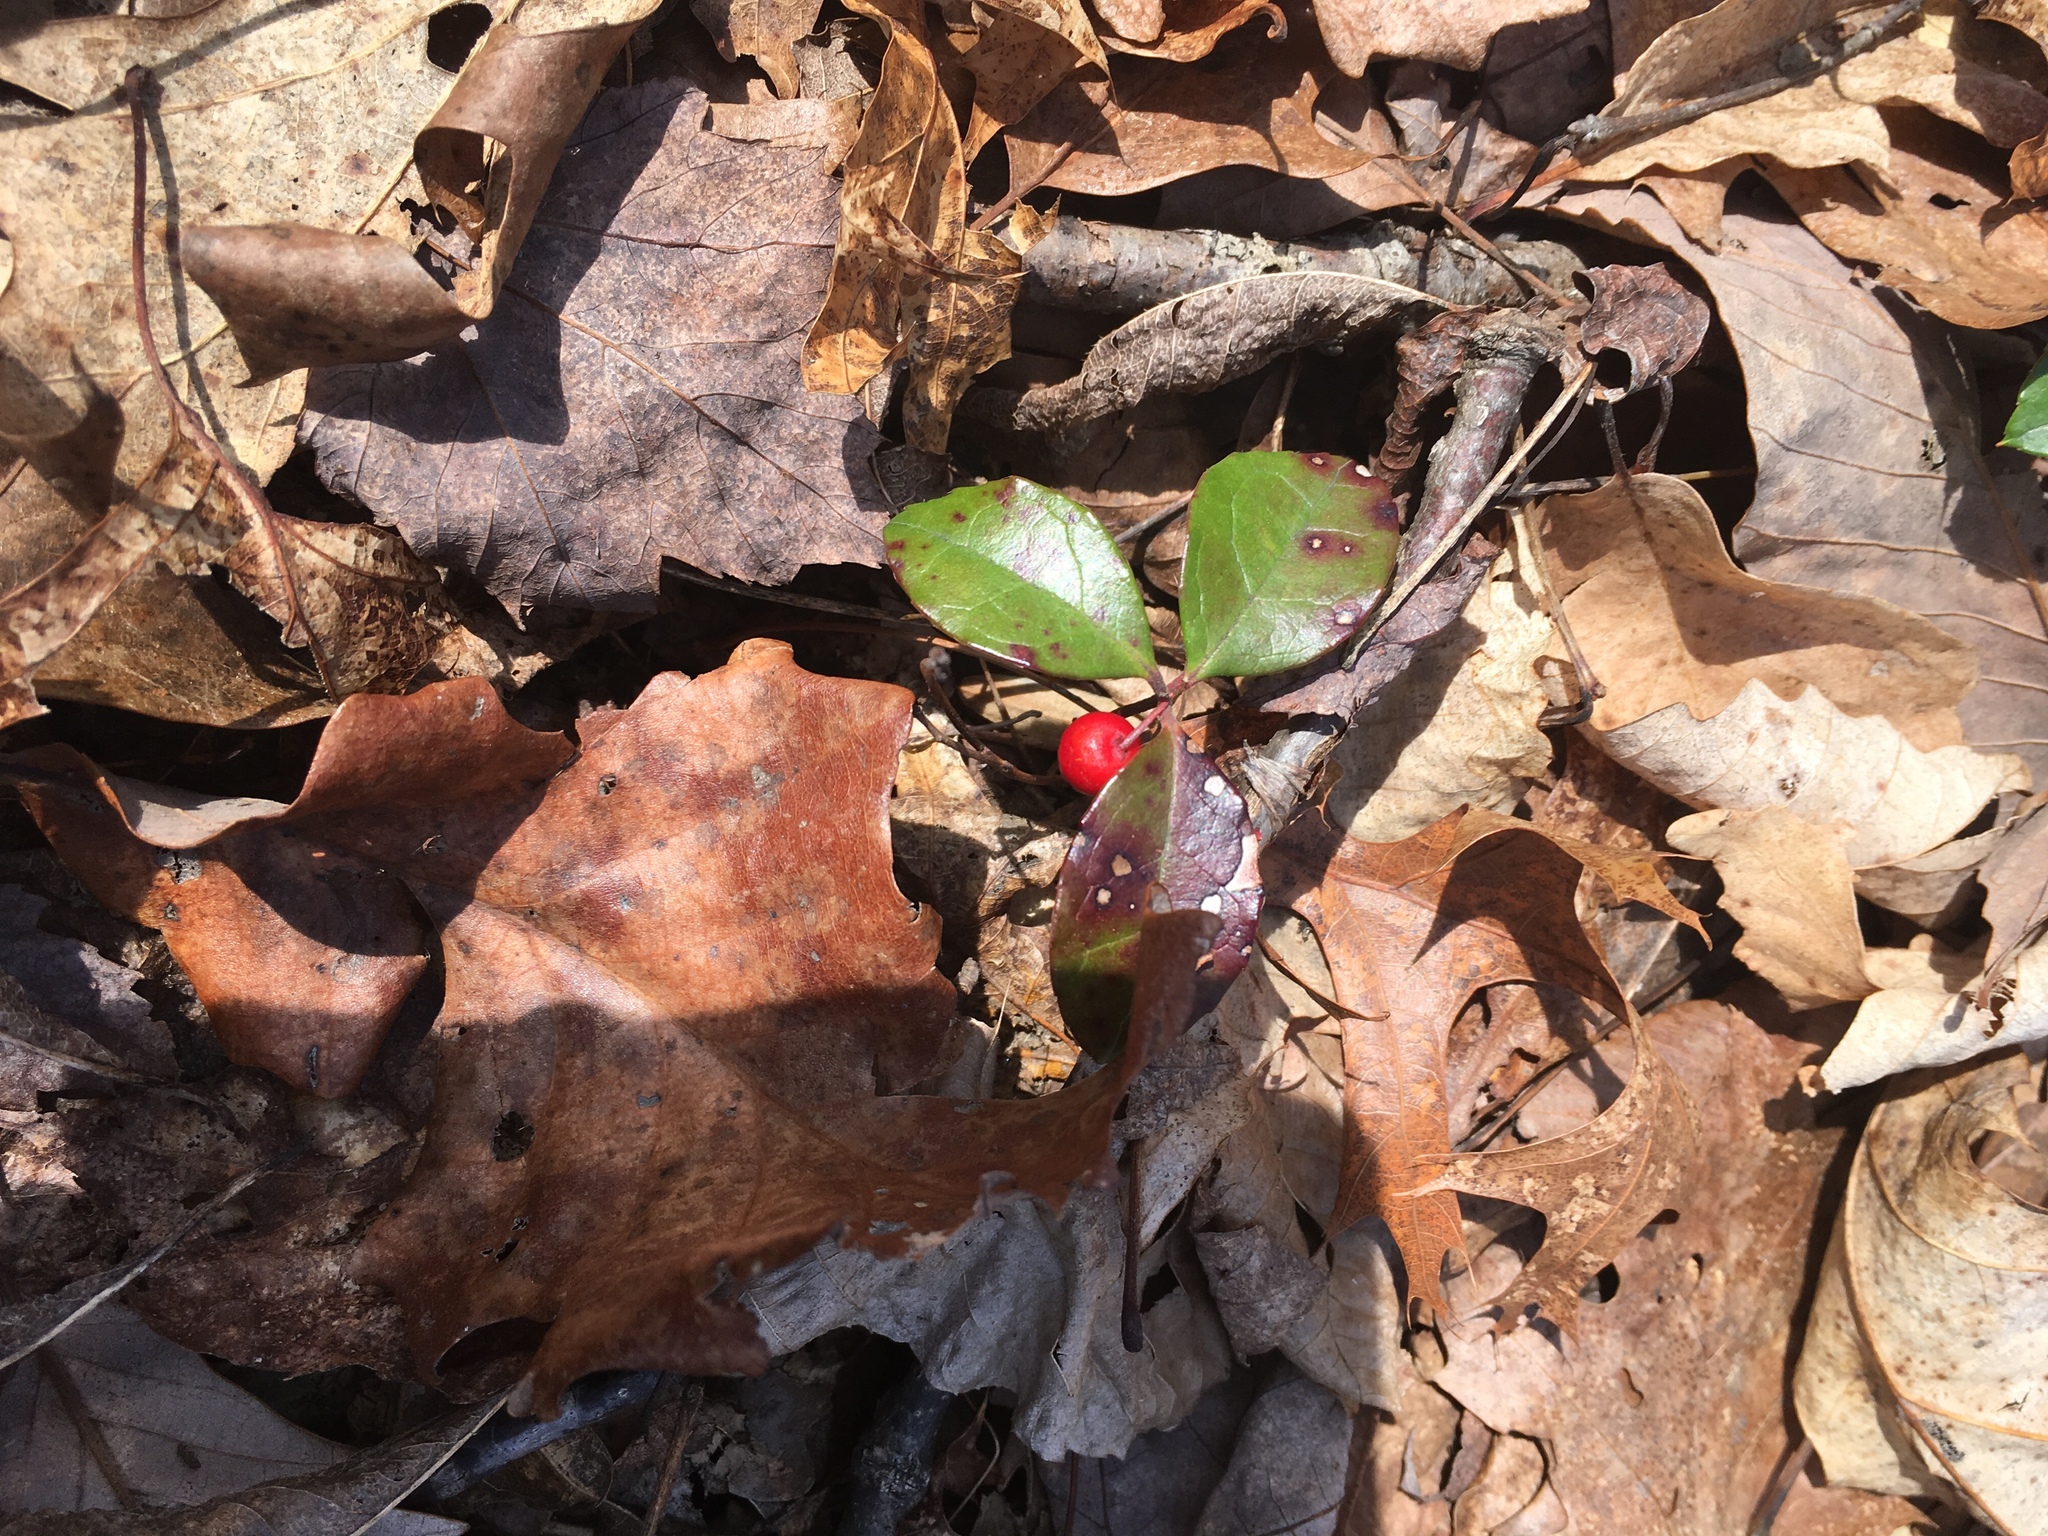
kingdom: Plantae
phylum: Tracheophyta
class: Magnoliopsida
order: Ericales
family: Ericaceae
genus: Gaultheria
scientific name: Gaultheria procumbens
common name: Checkerberry
